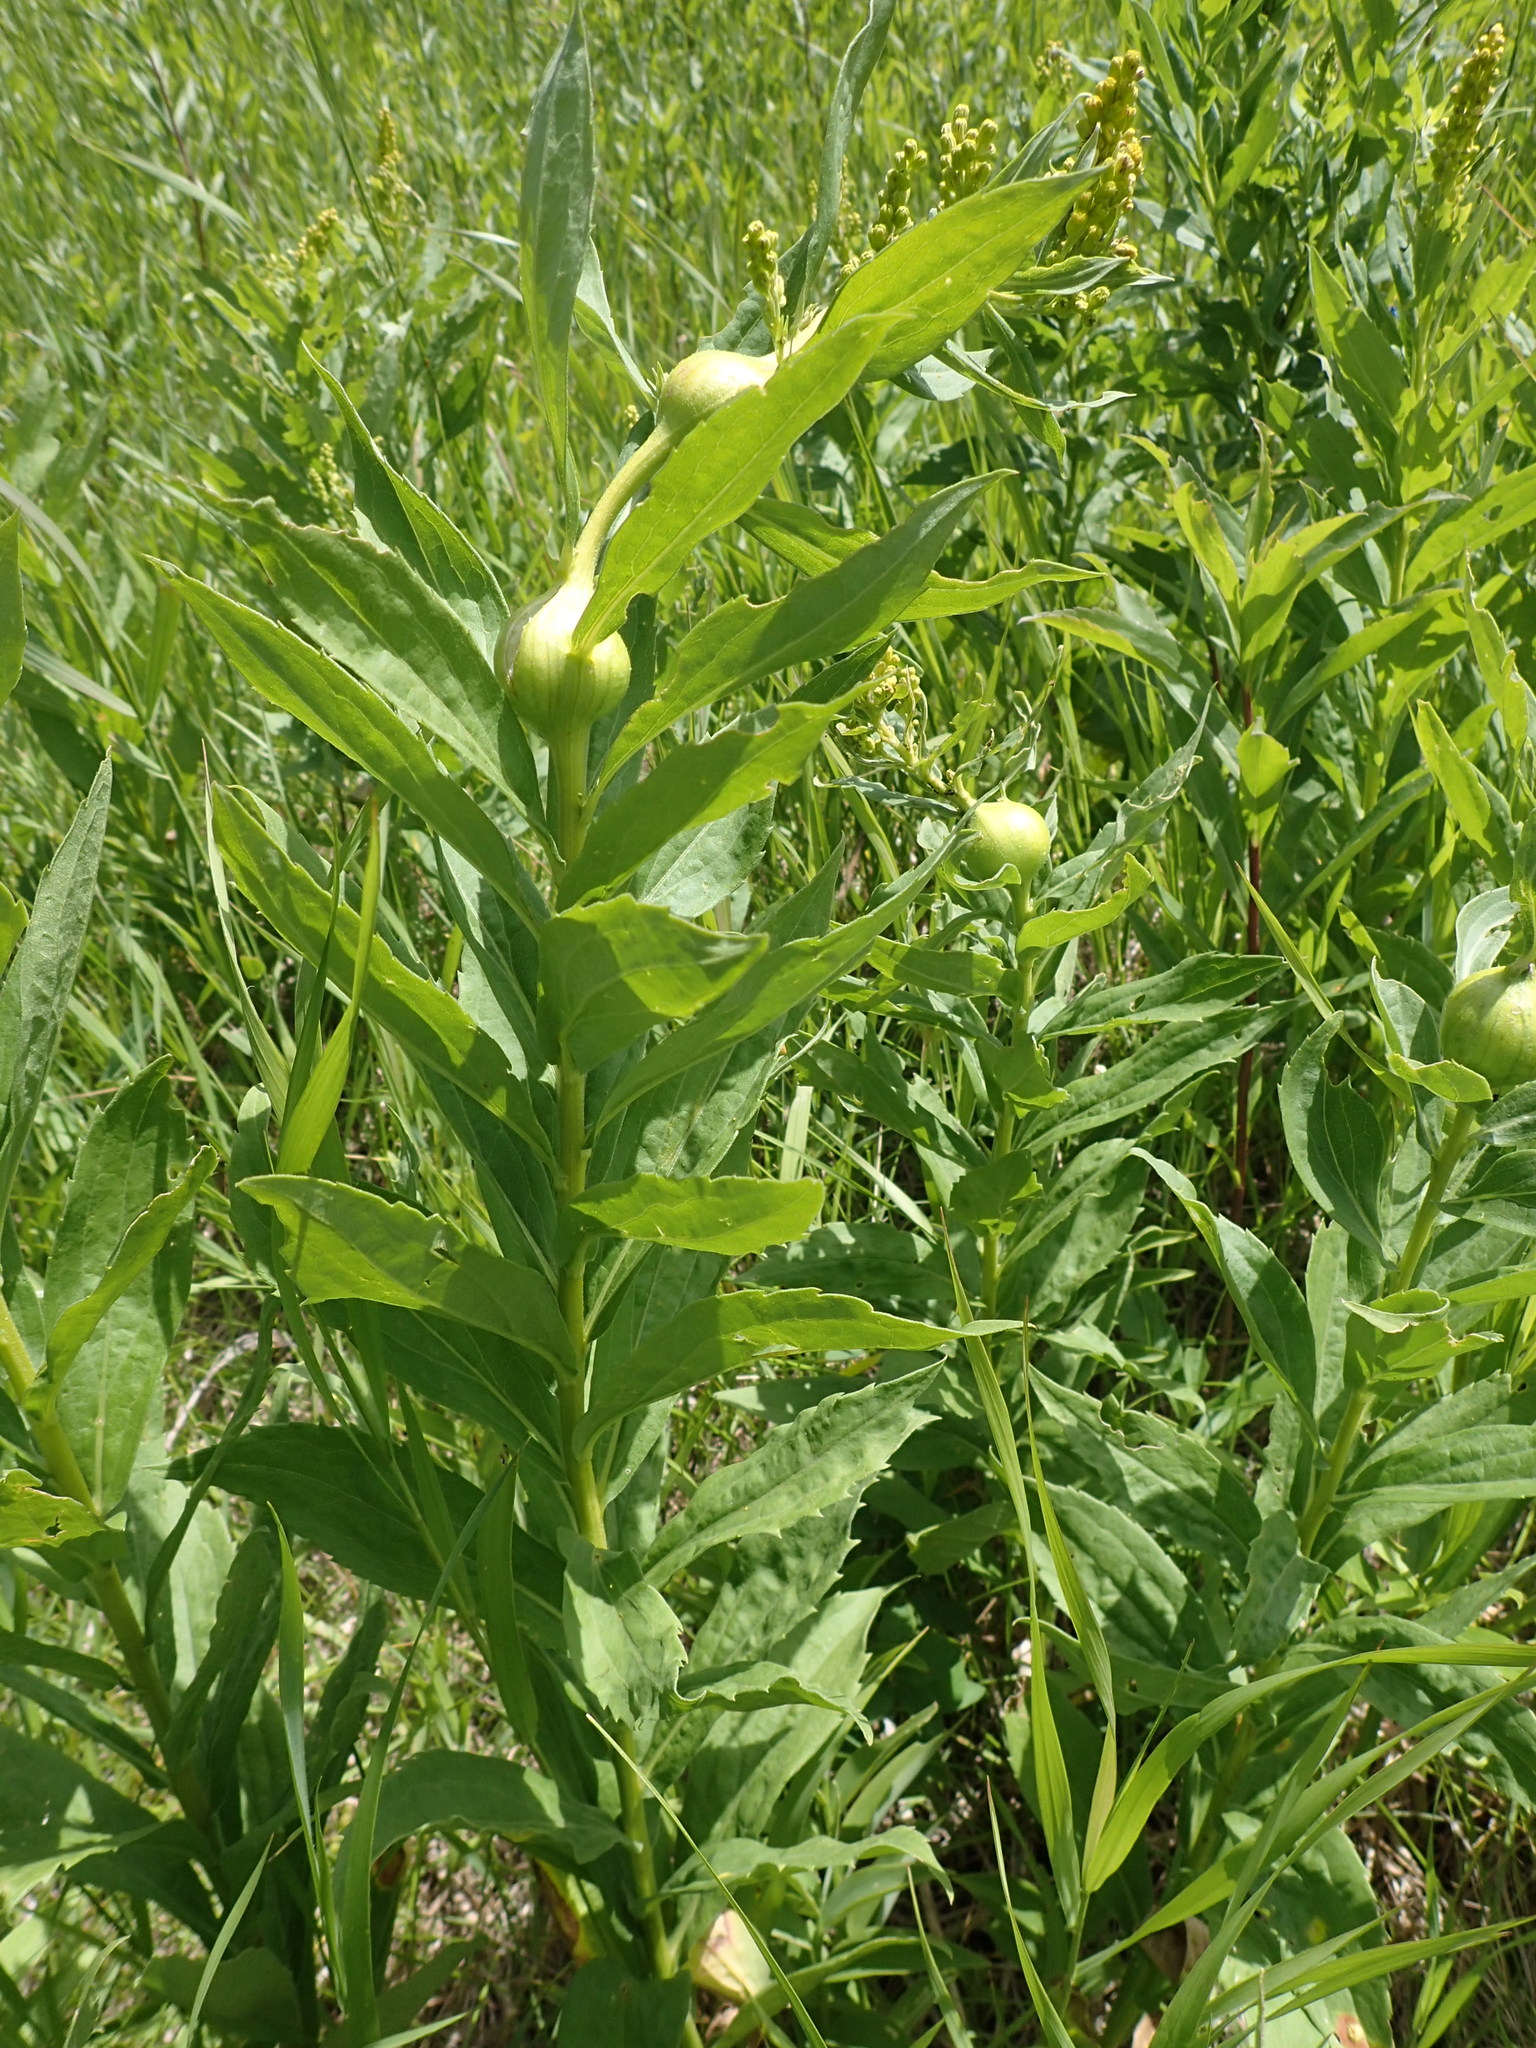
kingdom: Animalia
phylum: Arthropoda
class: Insecta
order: Diptera
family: Tephritidae
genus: Eurosta
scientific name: Eurosta solidaginis
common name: Goldenrod gall fly
